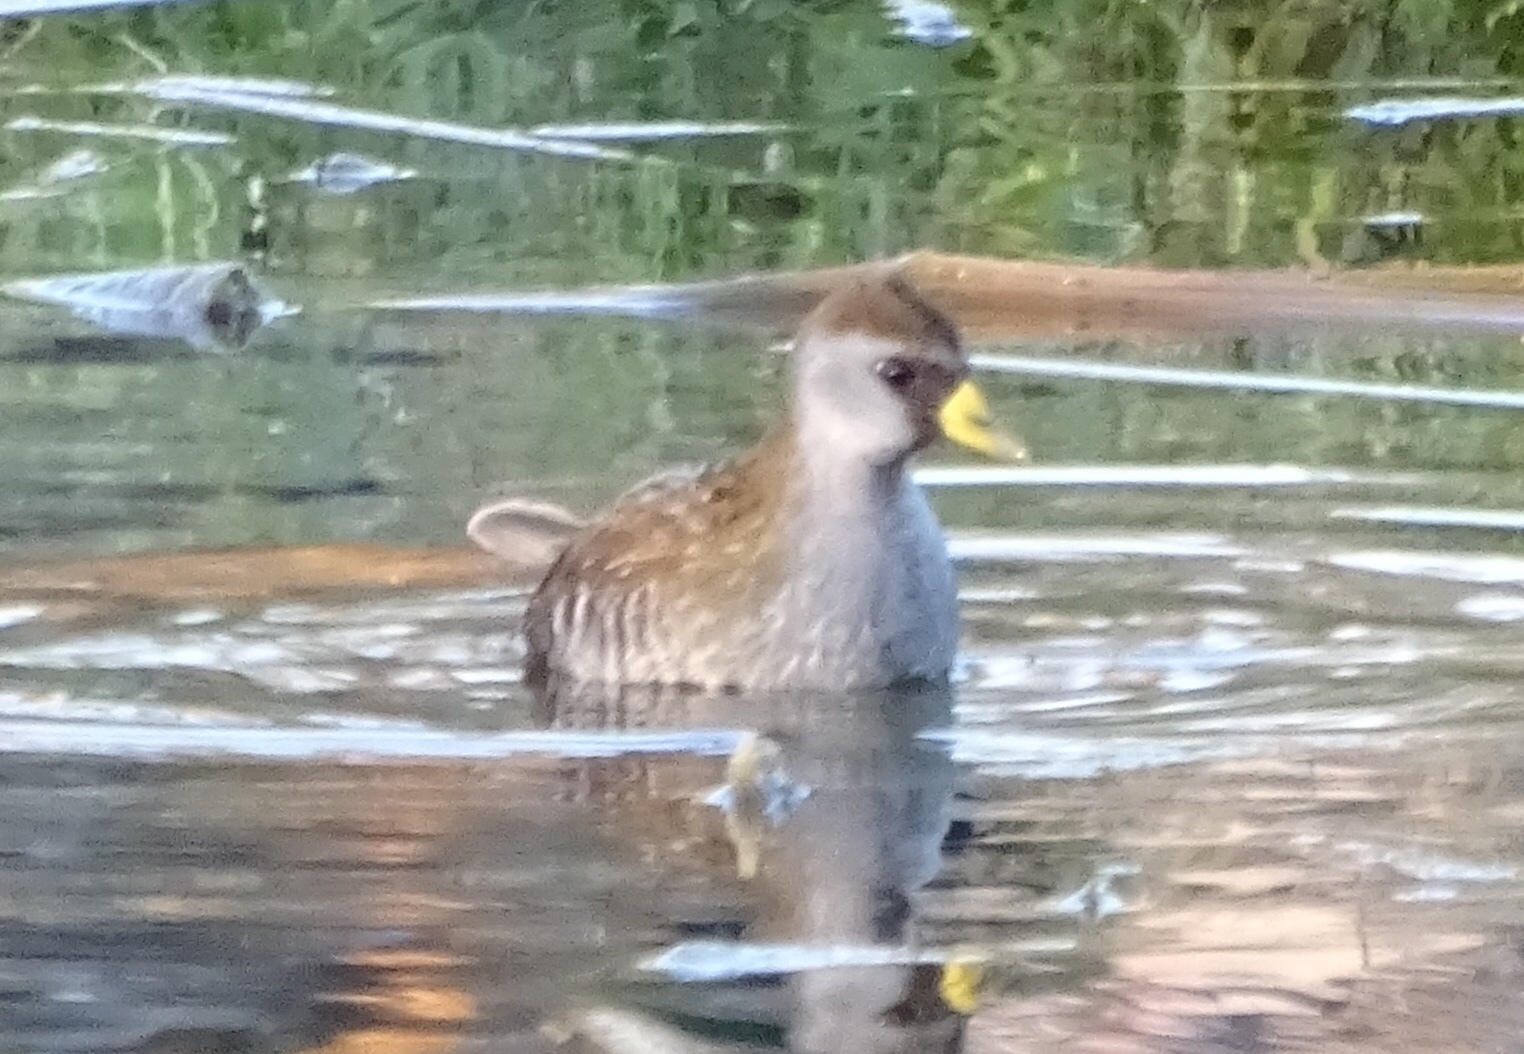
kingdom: Animalia
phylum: Chordata
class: Aves
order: Gruiformes
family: Rallidae
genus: Porzana
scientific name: Porzana carolina
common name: Sora
